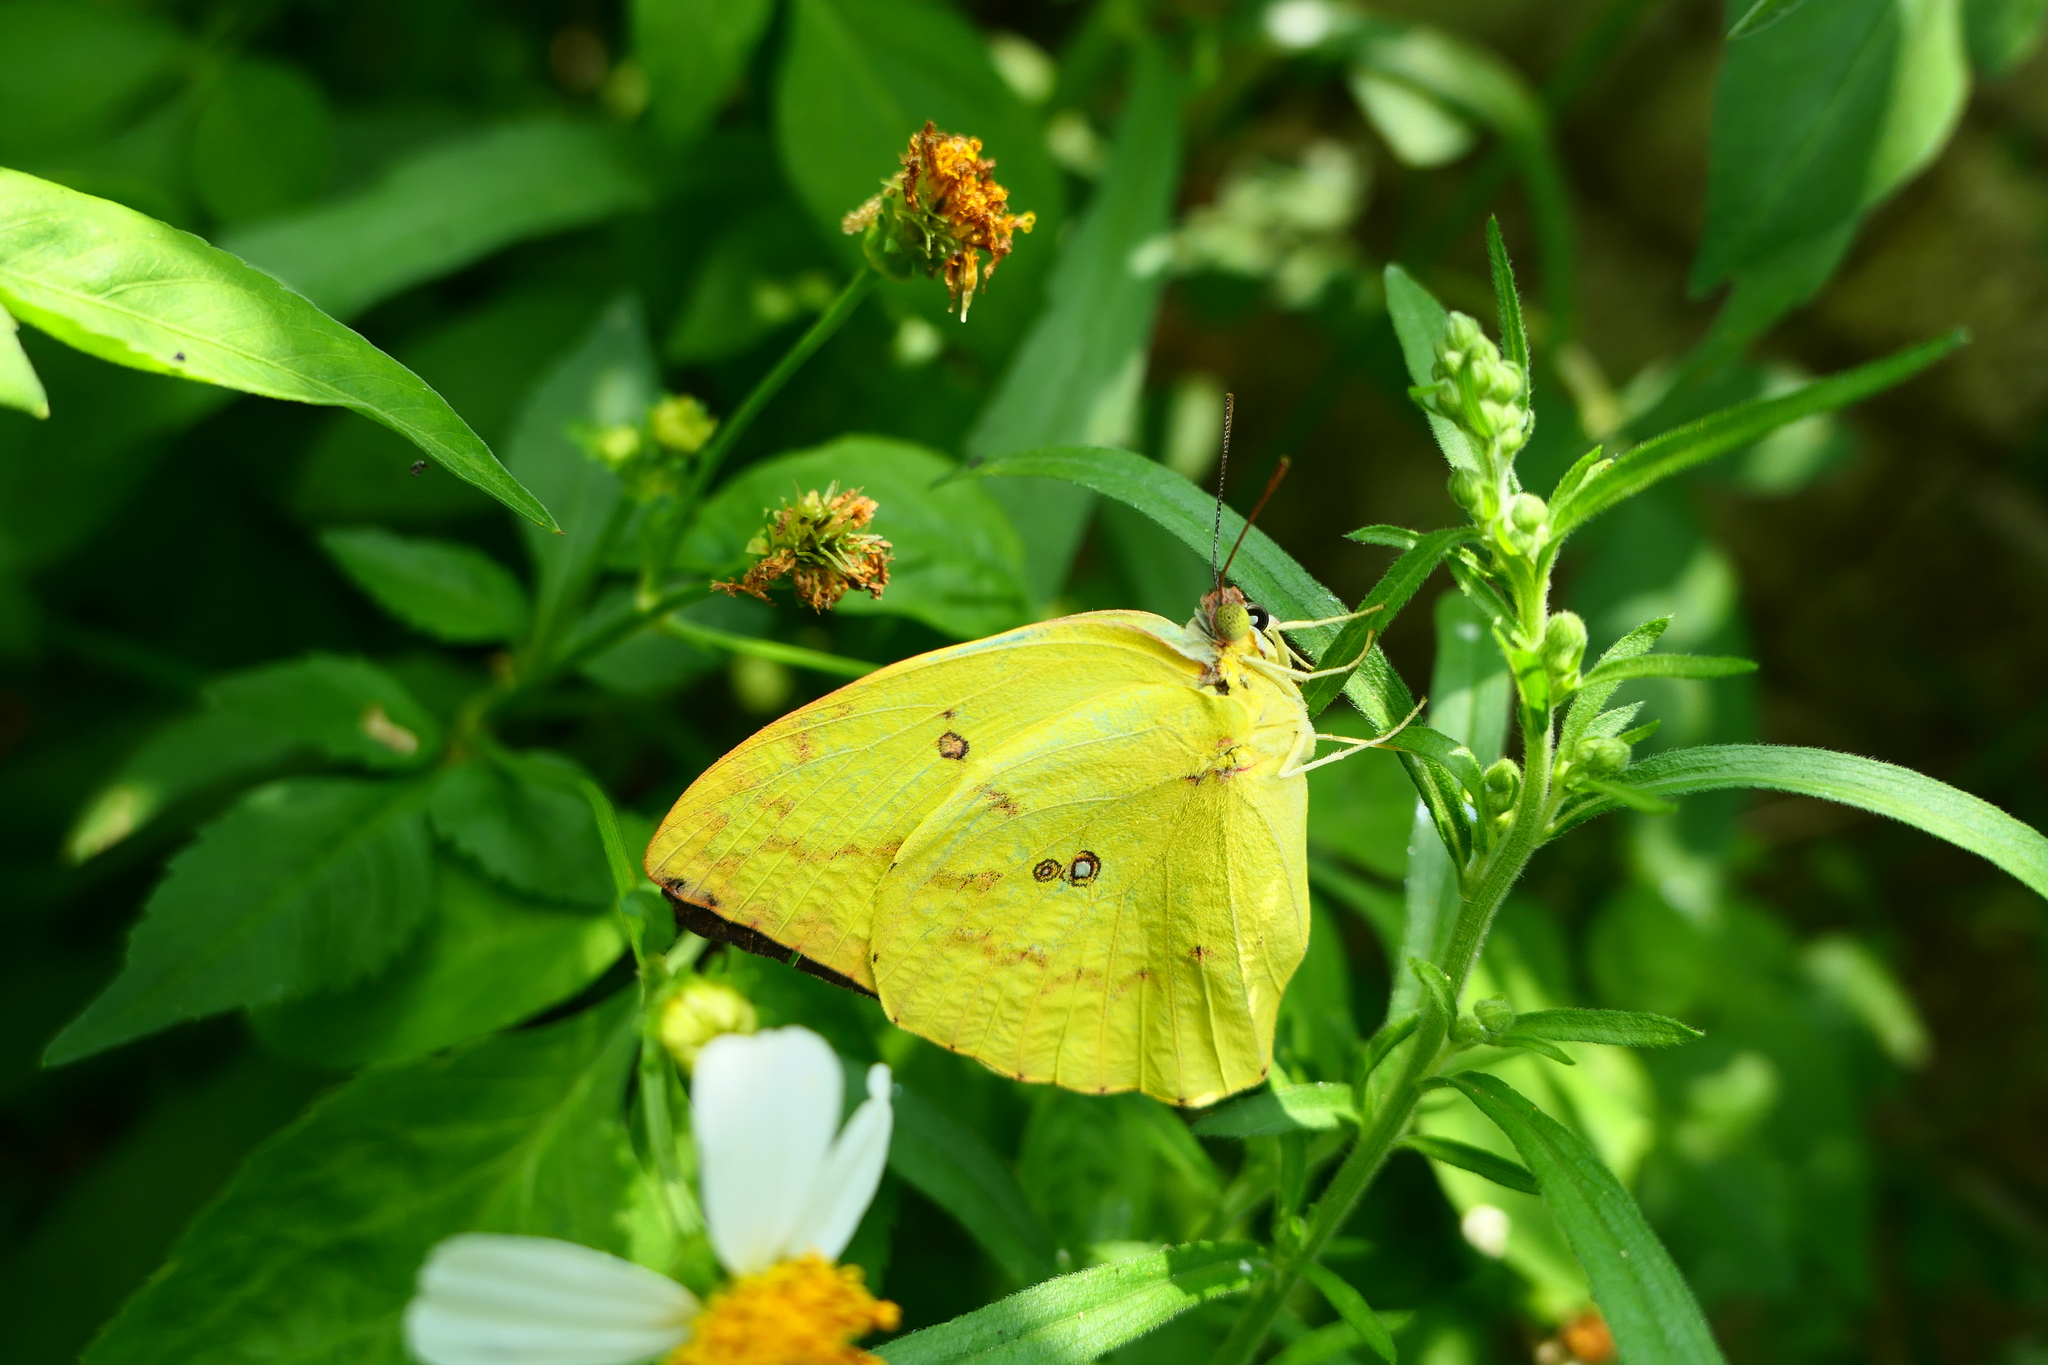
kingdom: Animalia
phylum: Arthropoda
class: Insecta
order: Lepidoptera
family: Pieridae
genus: Catopsilia
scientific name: Catopsilia pomona
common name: Common emigrant
